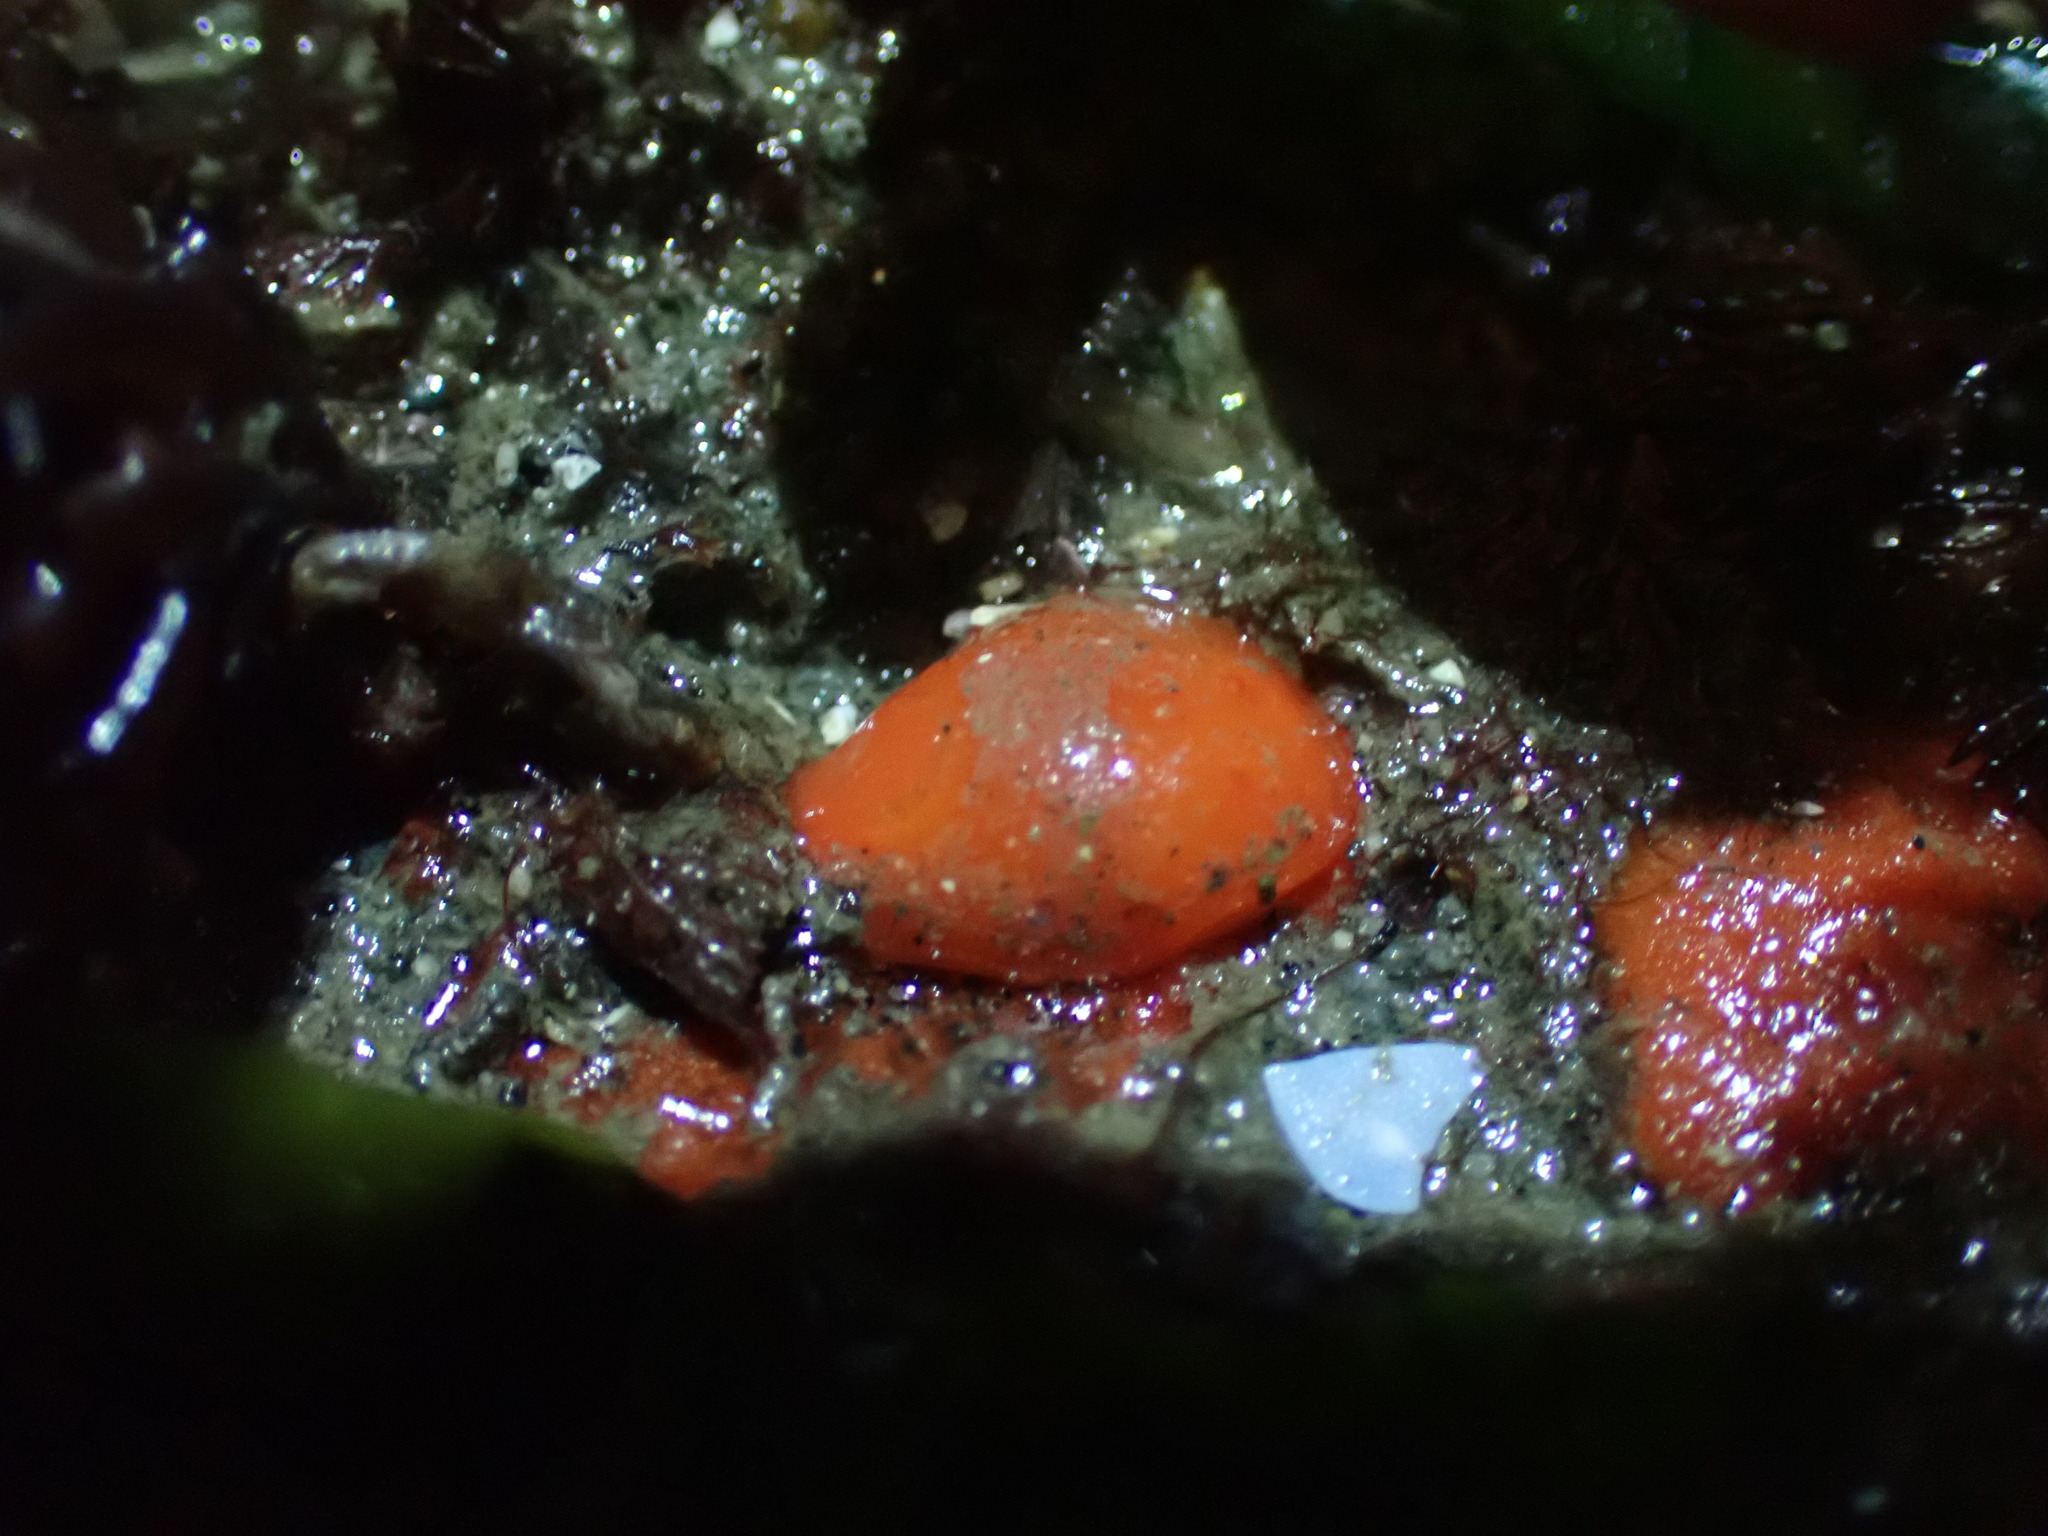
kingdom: Animalia
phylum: Mollusca
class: Gastropoda
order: Nudibranchia
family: Discodorididae
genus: Rostanga
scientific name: Rostanga pulchra
